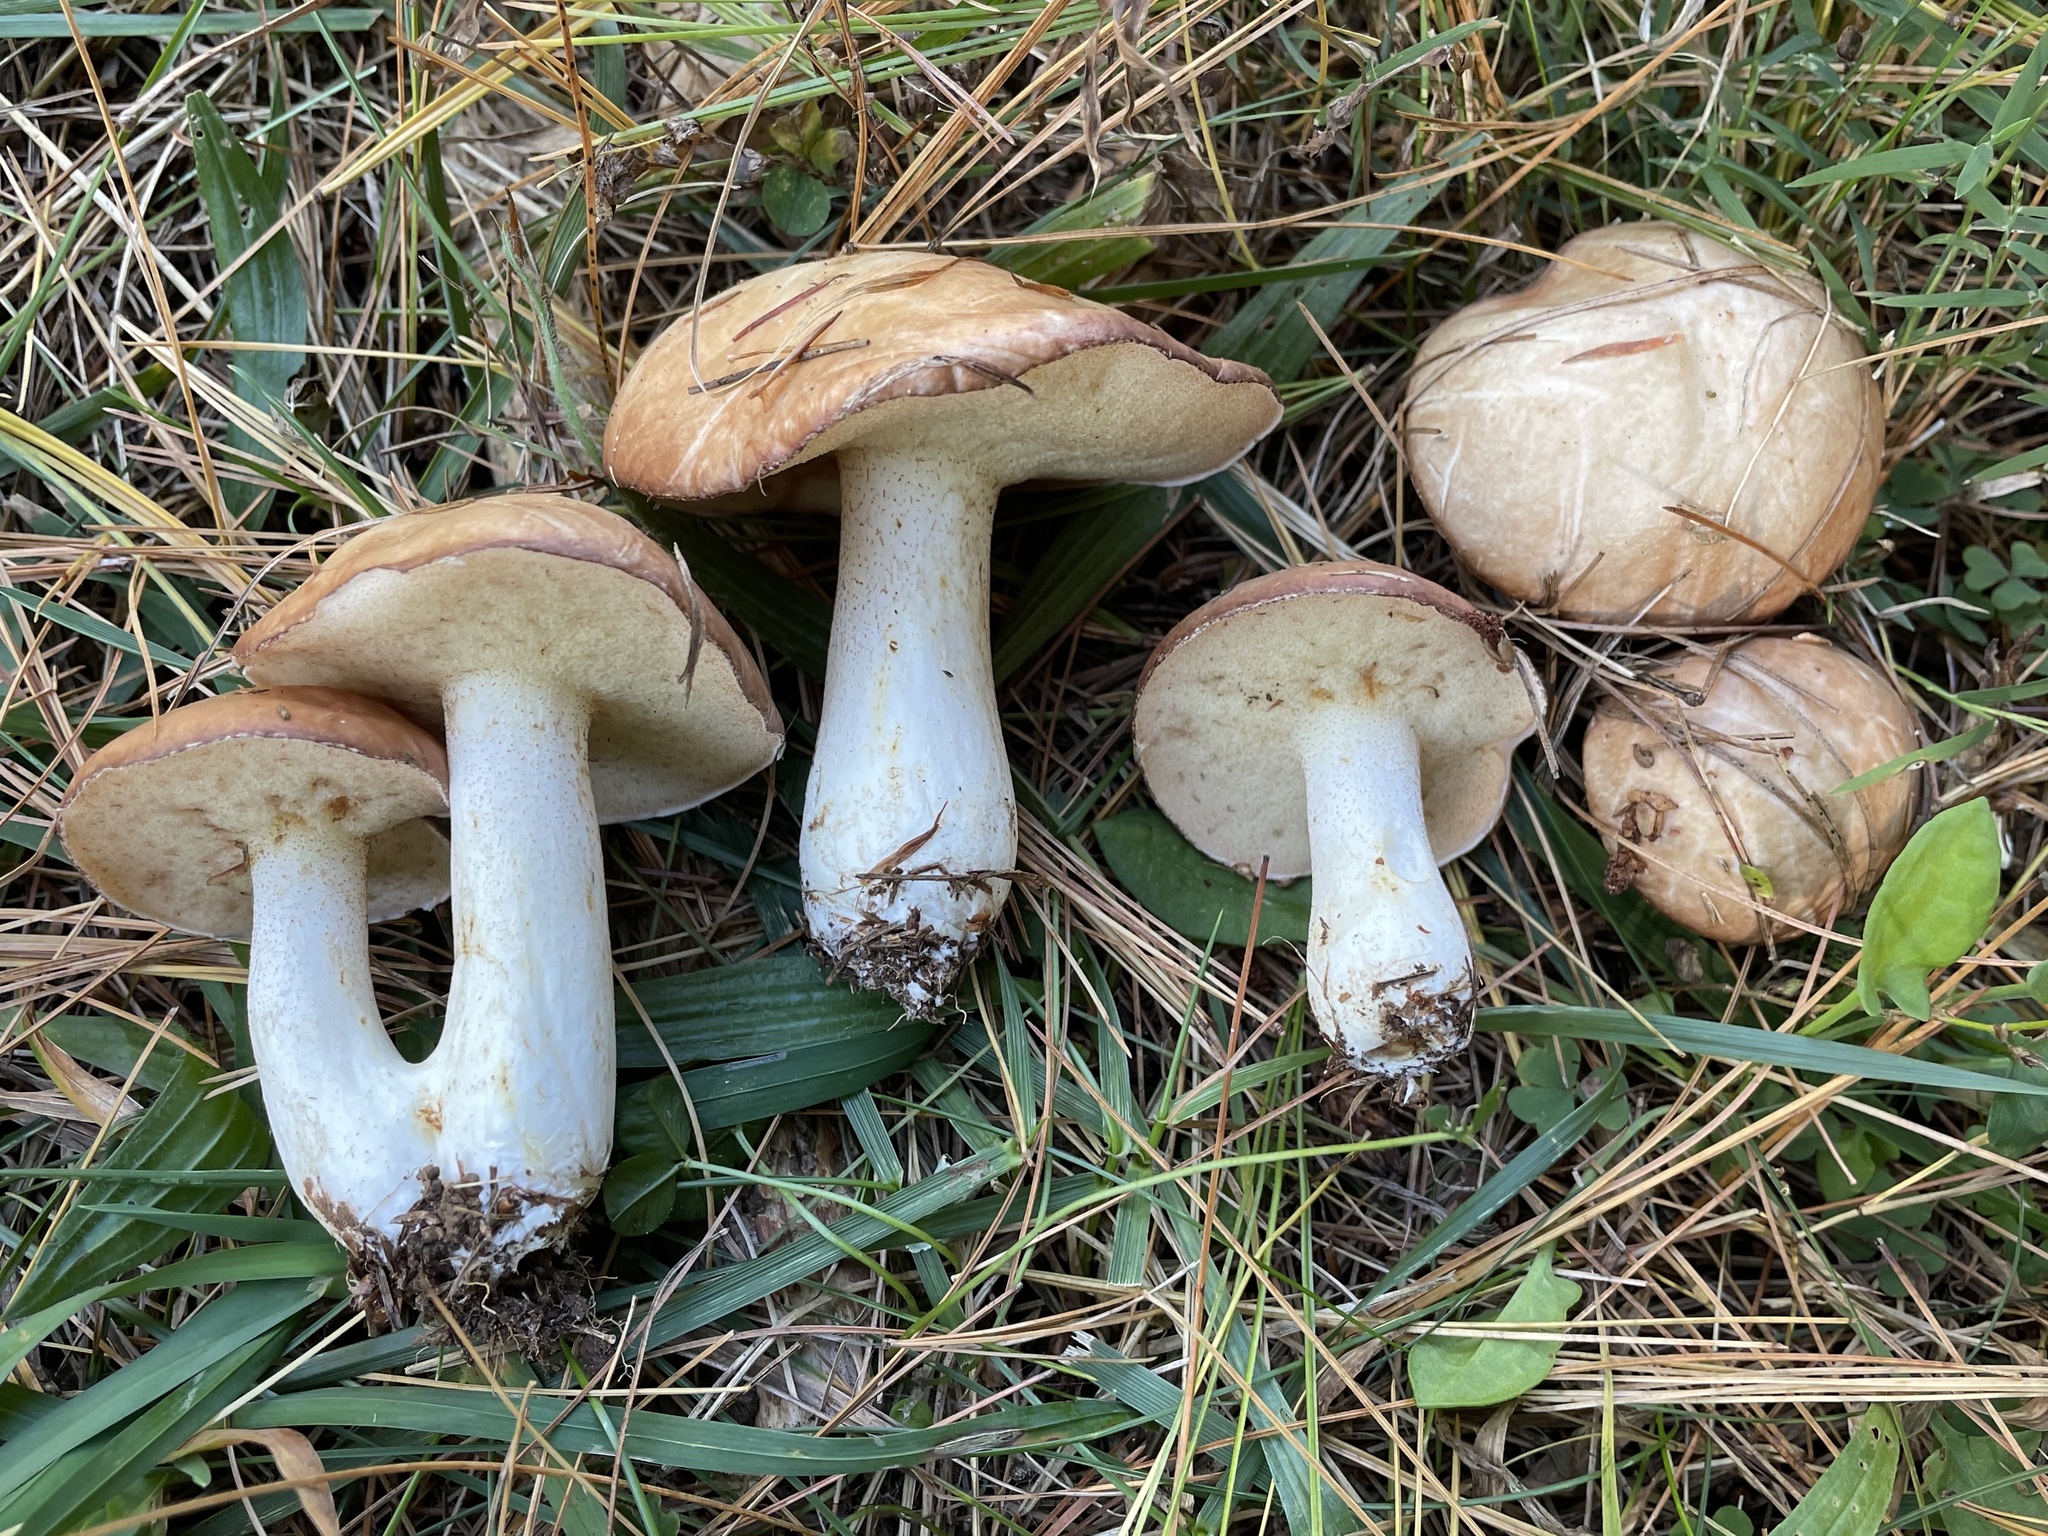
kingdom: Fungi
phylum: Basidiomycota
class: Agaricomycetes
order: Boletales
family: Suillaceae
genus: Fuscoboletinus
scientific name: Fuscoboletinus weaverae
